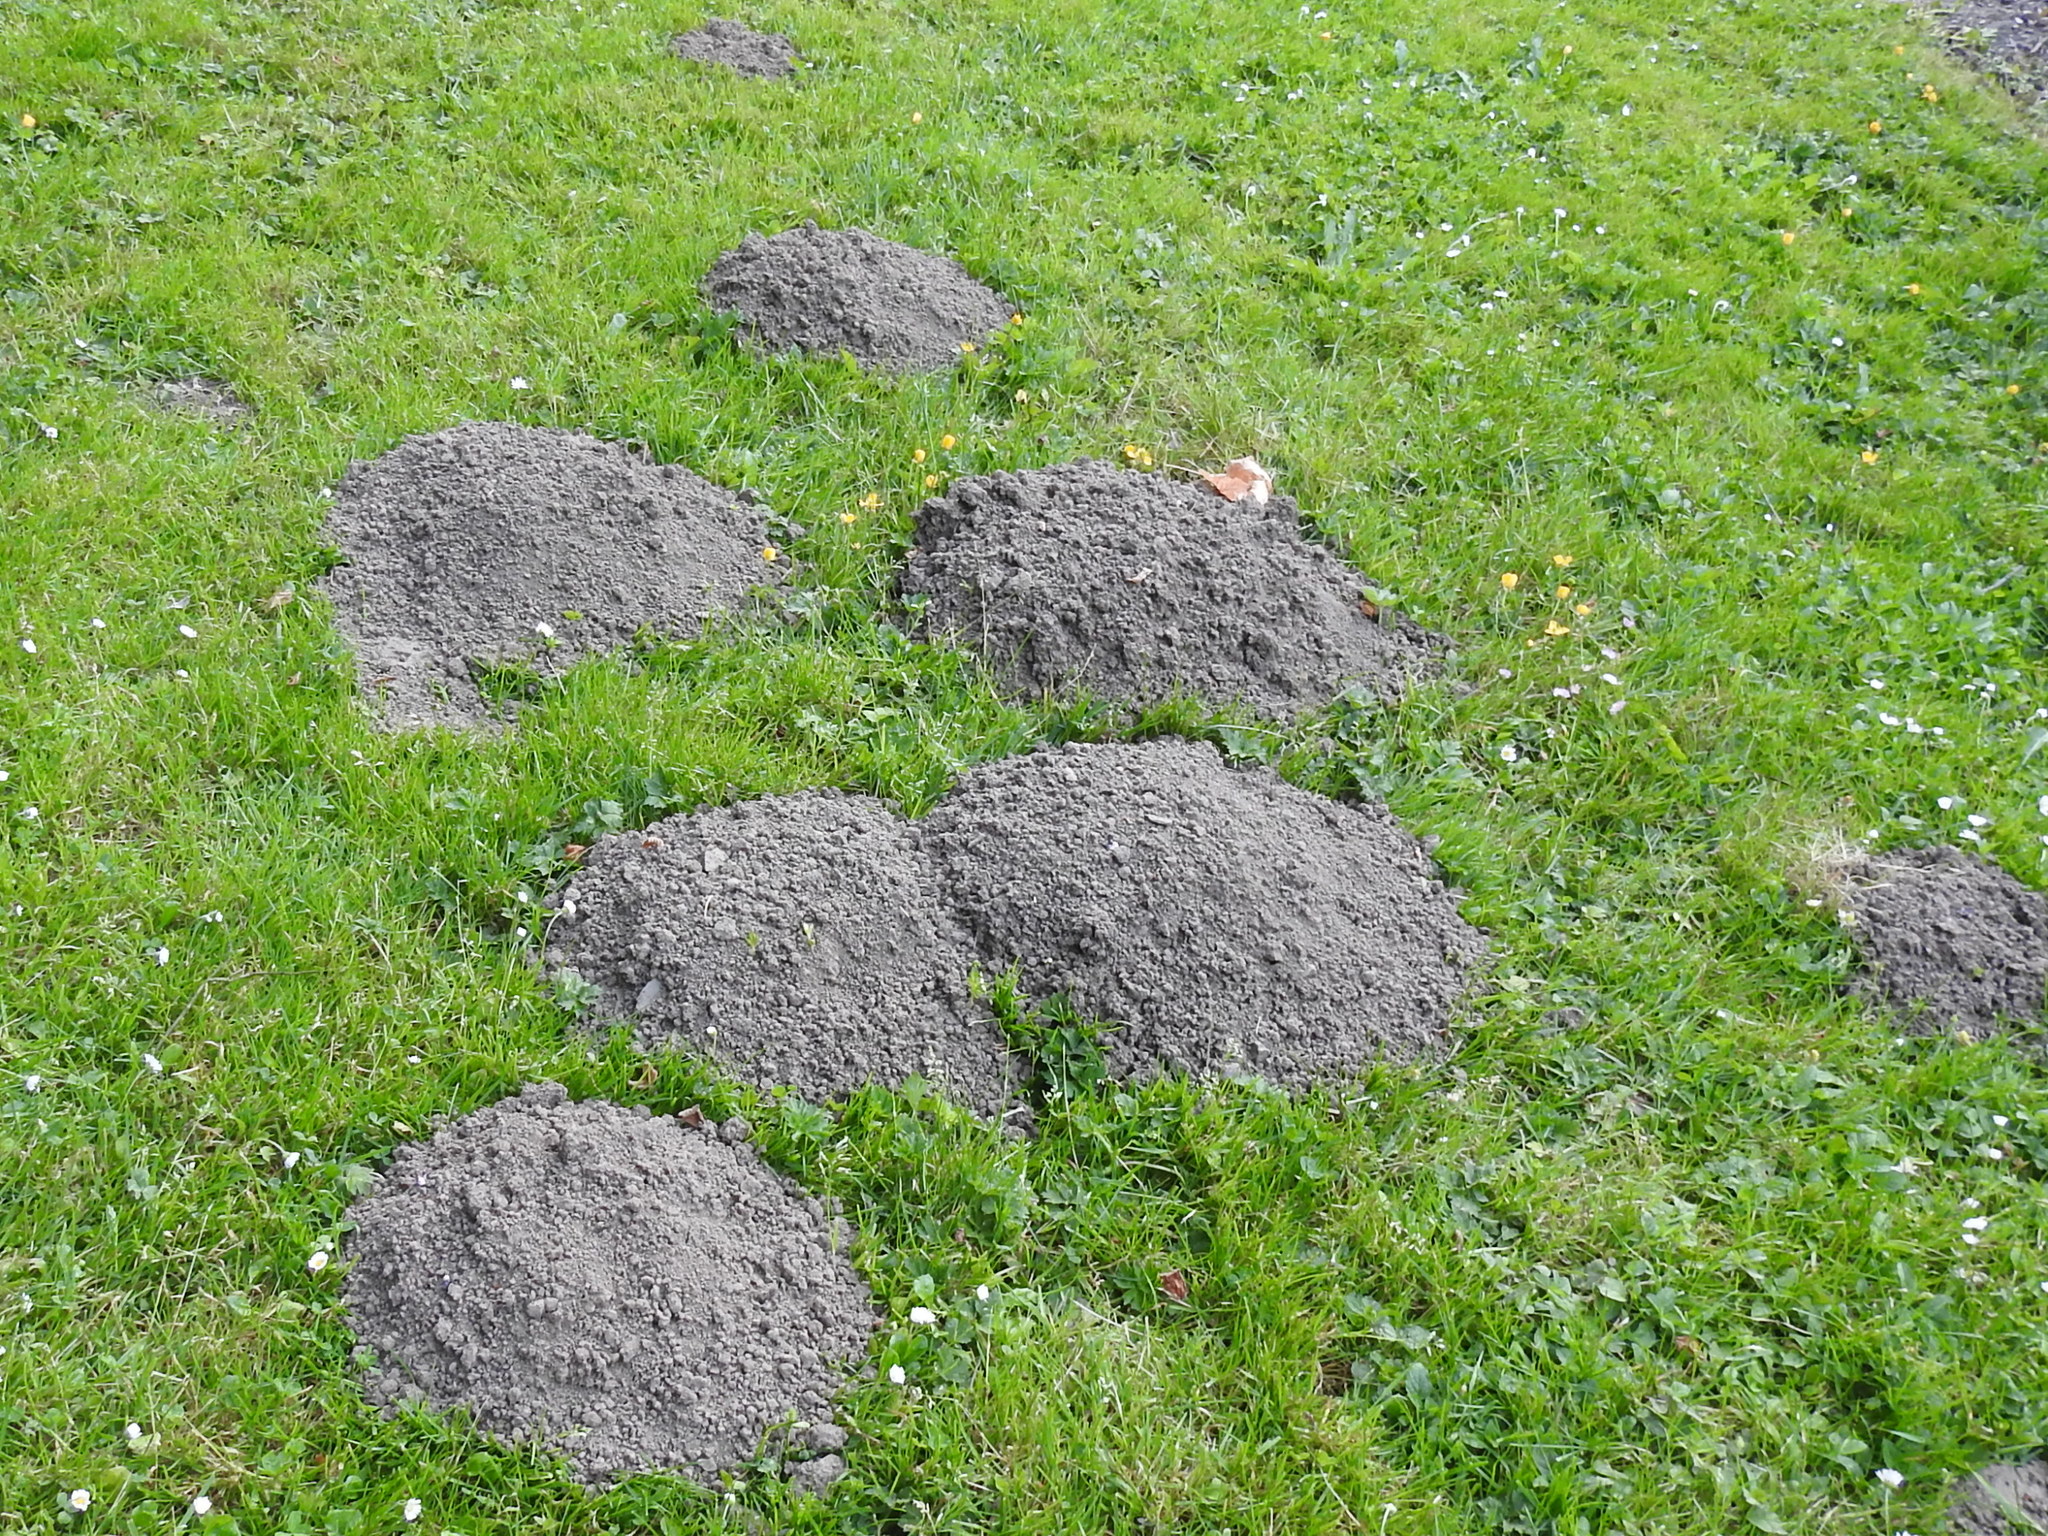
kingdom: Animalia
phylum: Chordata
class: Mammalia
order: Rodentia
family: Geomyidae
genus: Thomomys
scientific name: Thomomys bulbivorus
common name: Camas pocket gopher
